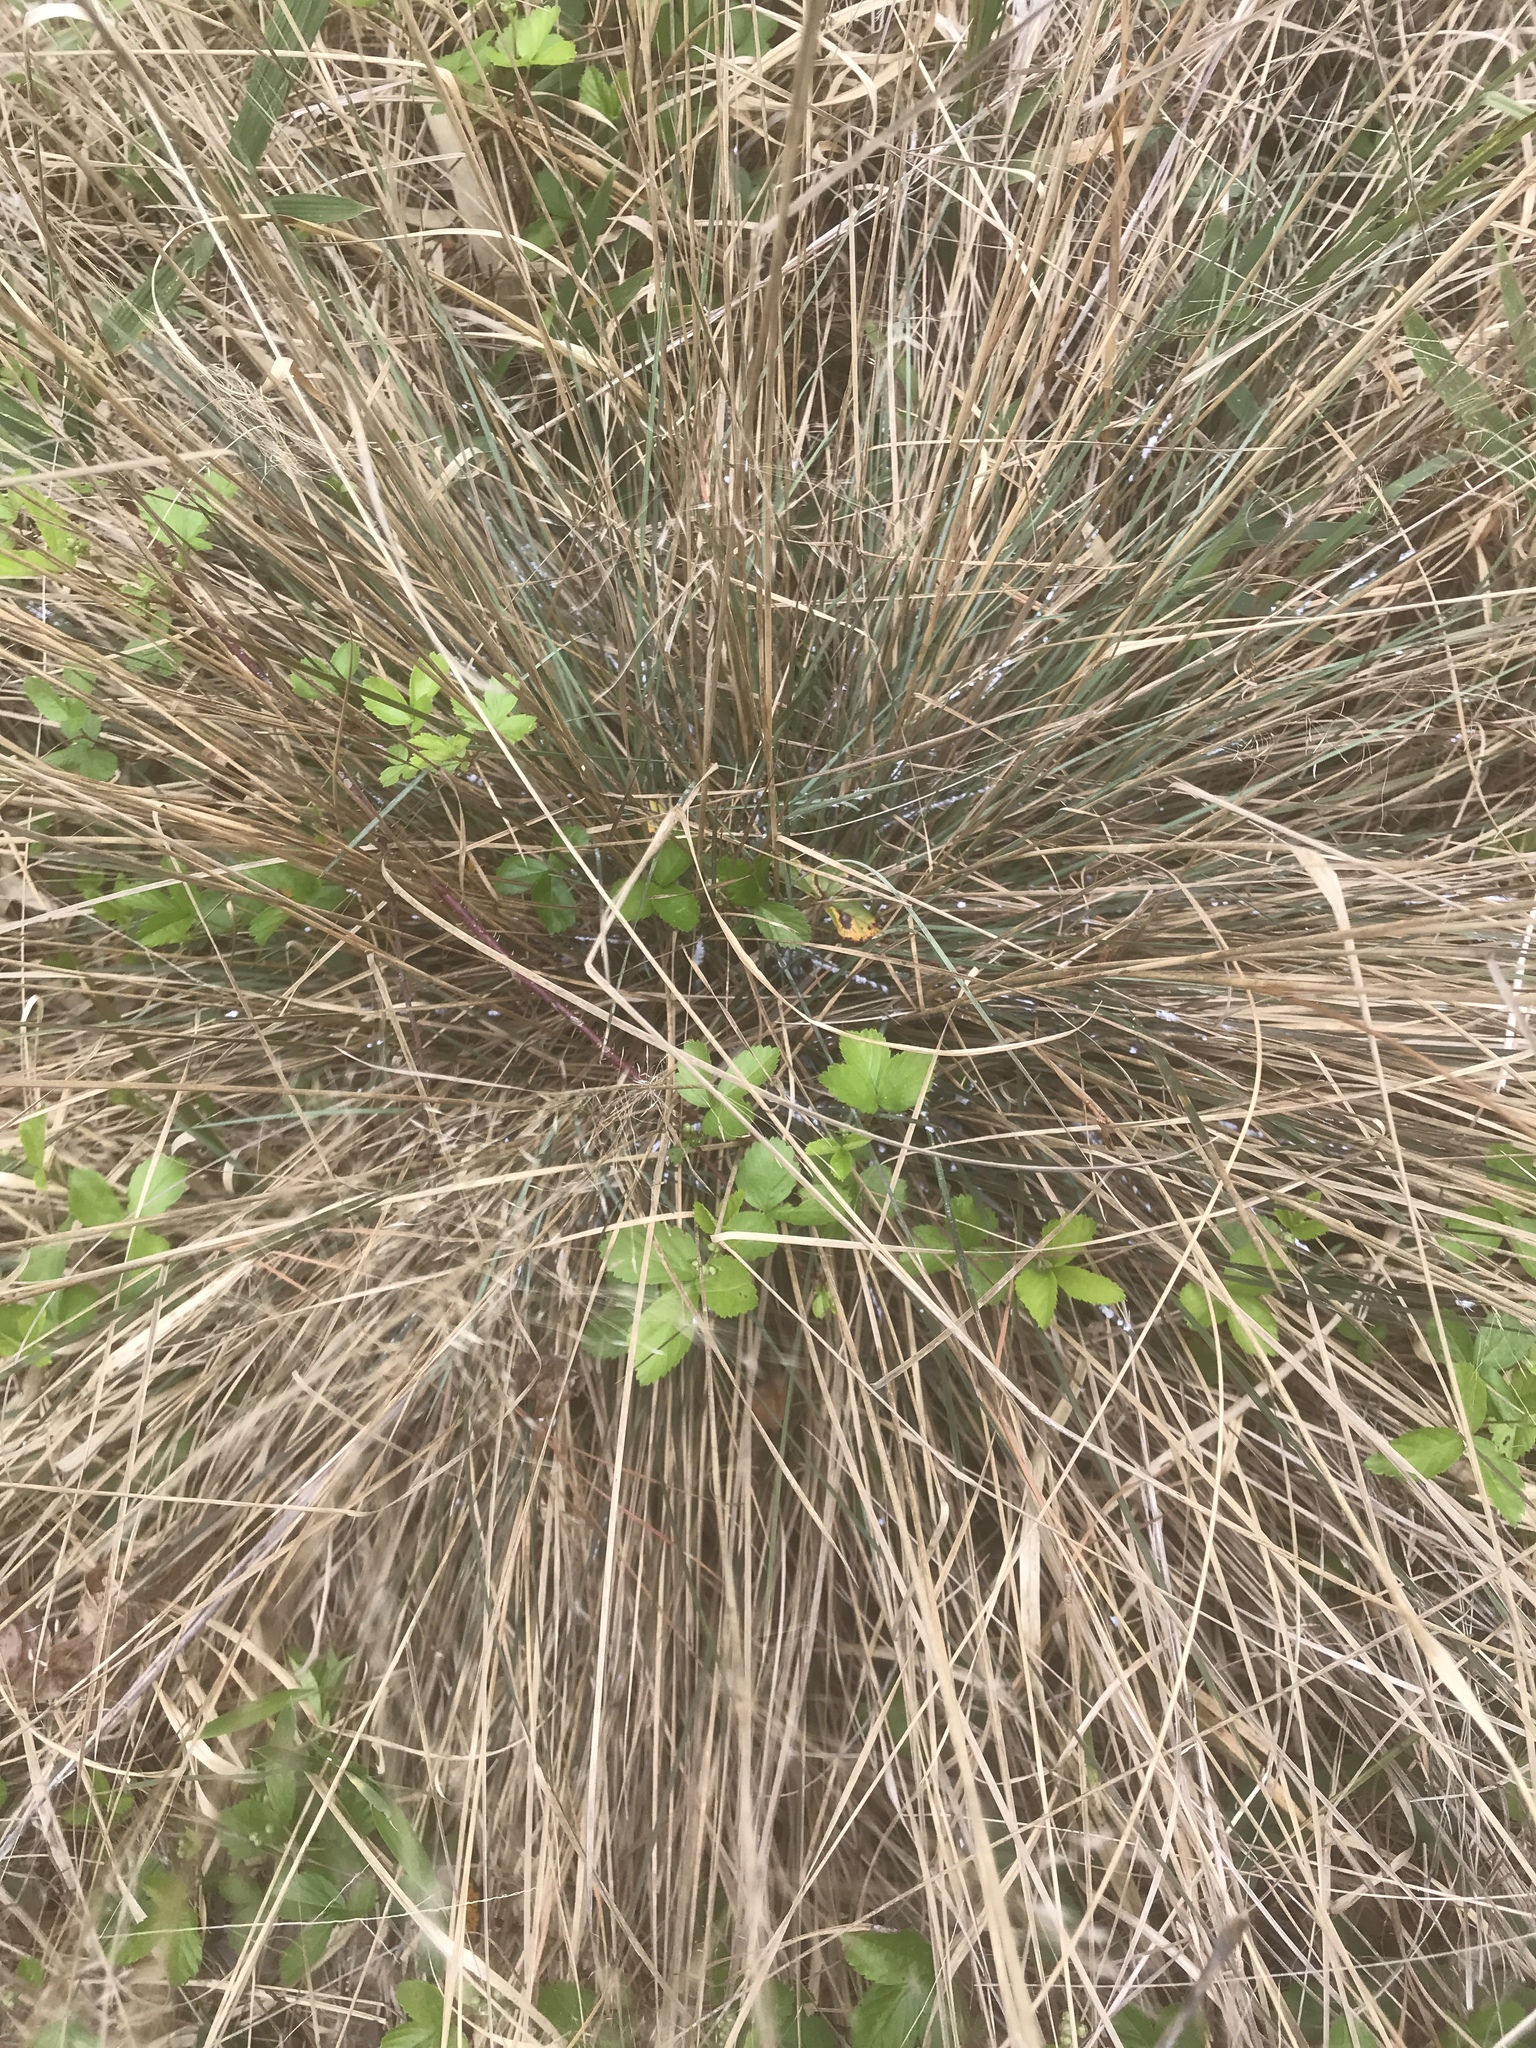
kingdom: Plantae
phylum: Tracheophyta
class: Liliopsida
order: Poales
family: Poaceae
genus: Muhlenbergia
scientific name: Muhlenbergia expansa
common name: Savannah hairgrass
